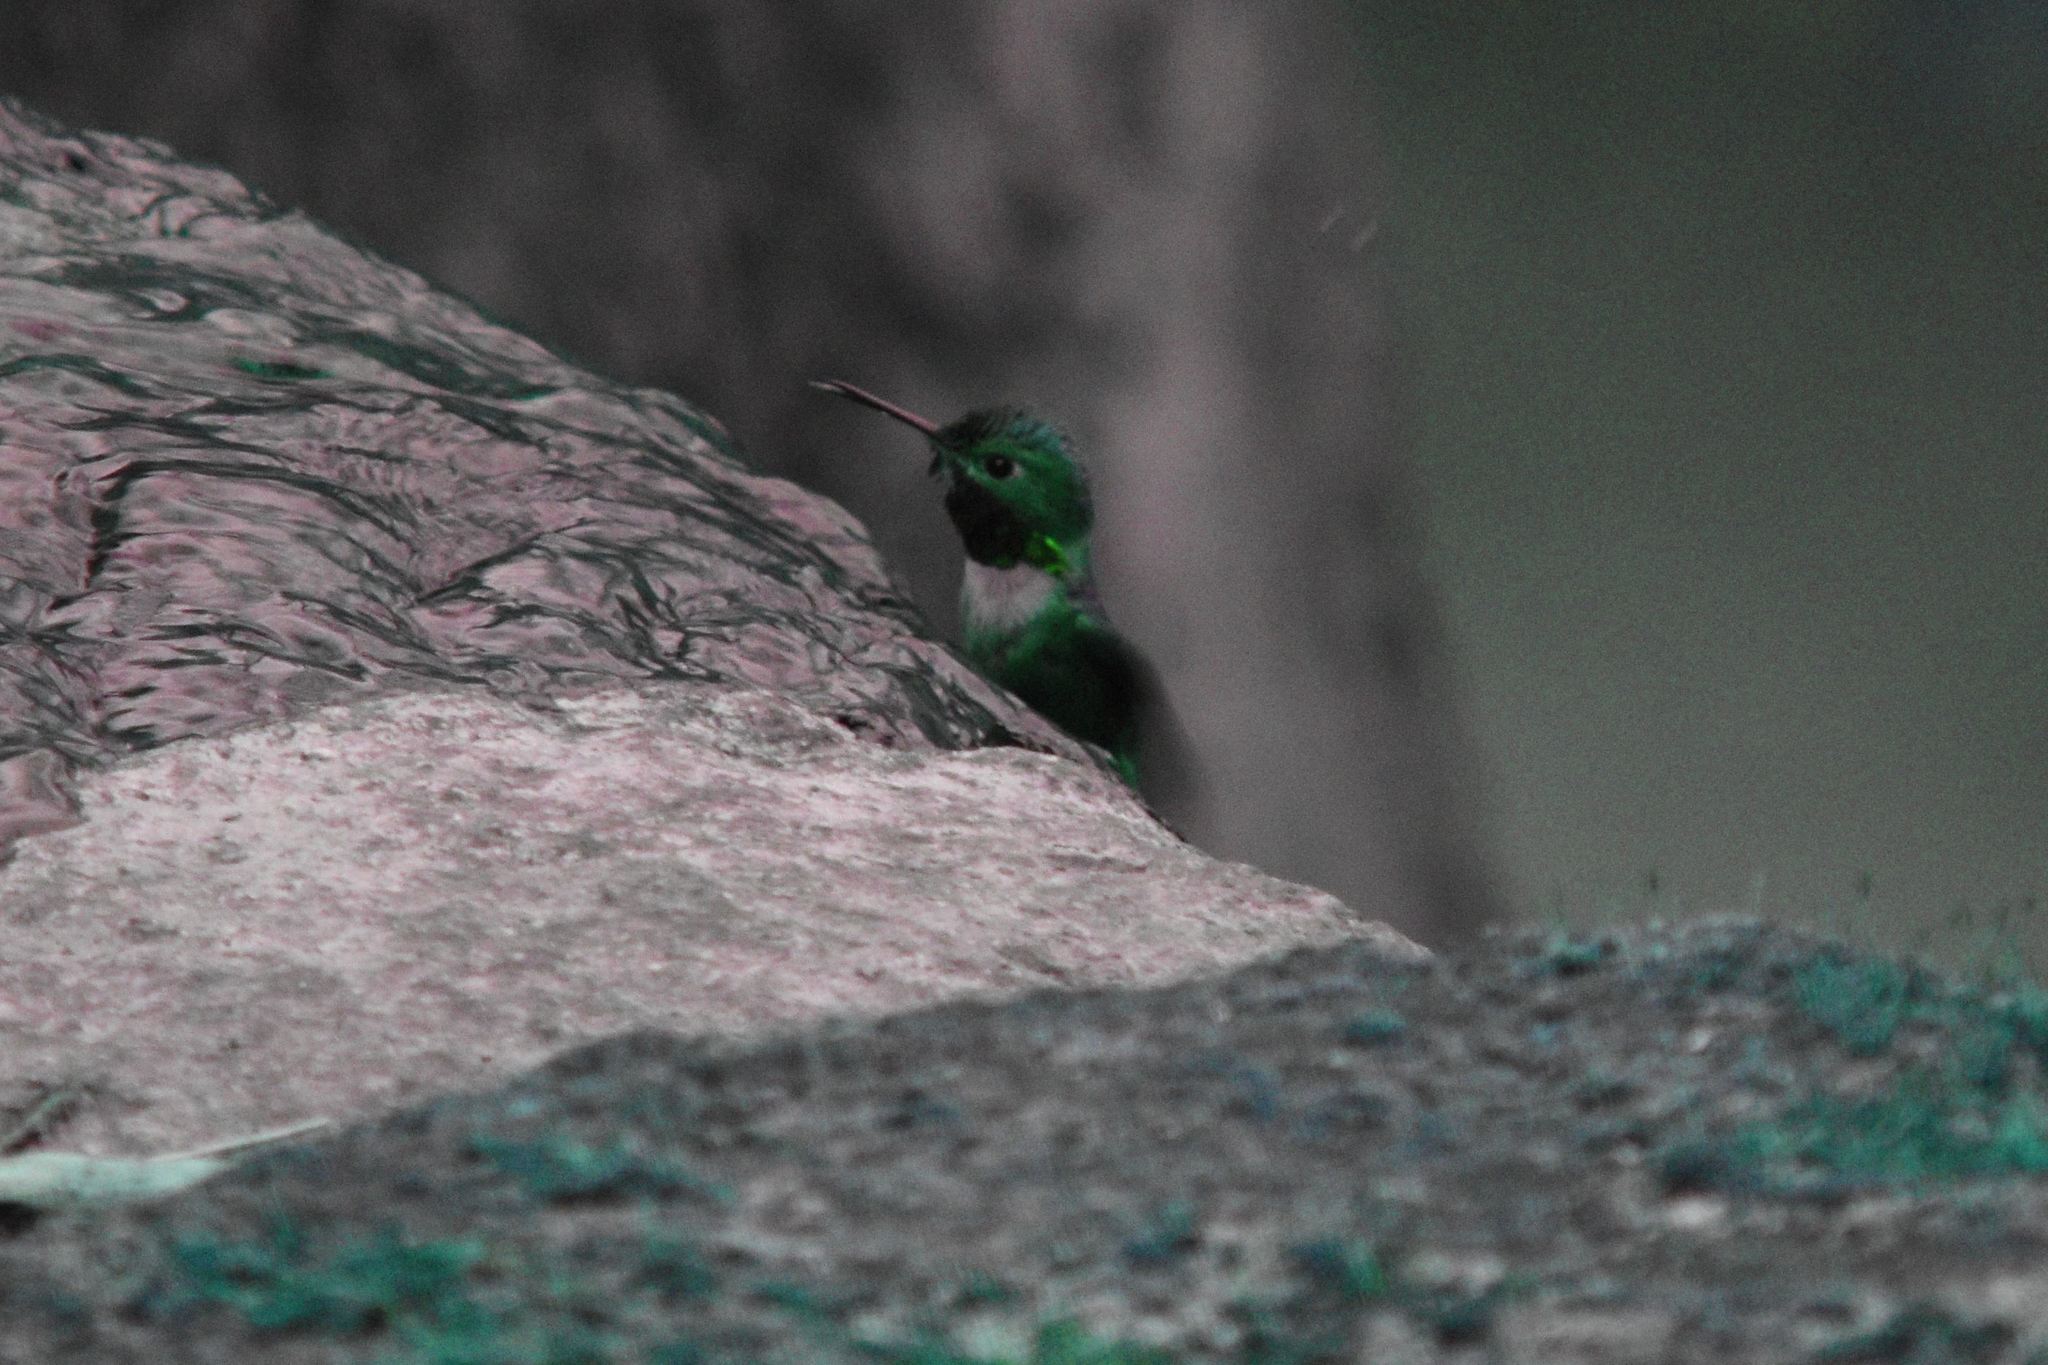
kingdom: Animalia
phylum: Chordata
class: Aves
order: Apodiformes
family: Trochilidae
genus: Selasphorus
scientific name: Selasphorus sasin
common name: Allen's hummingbird
